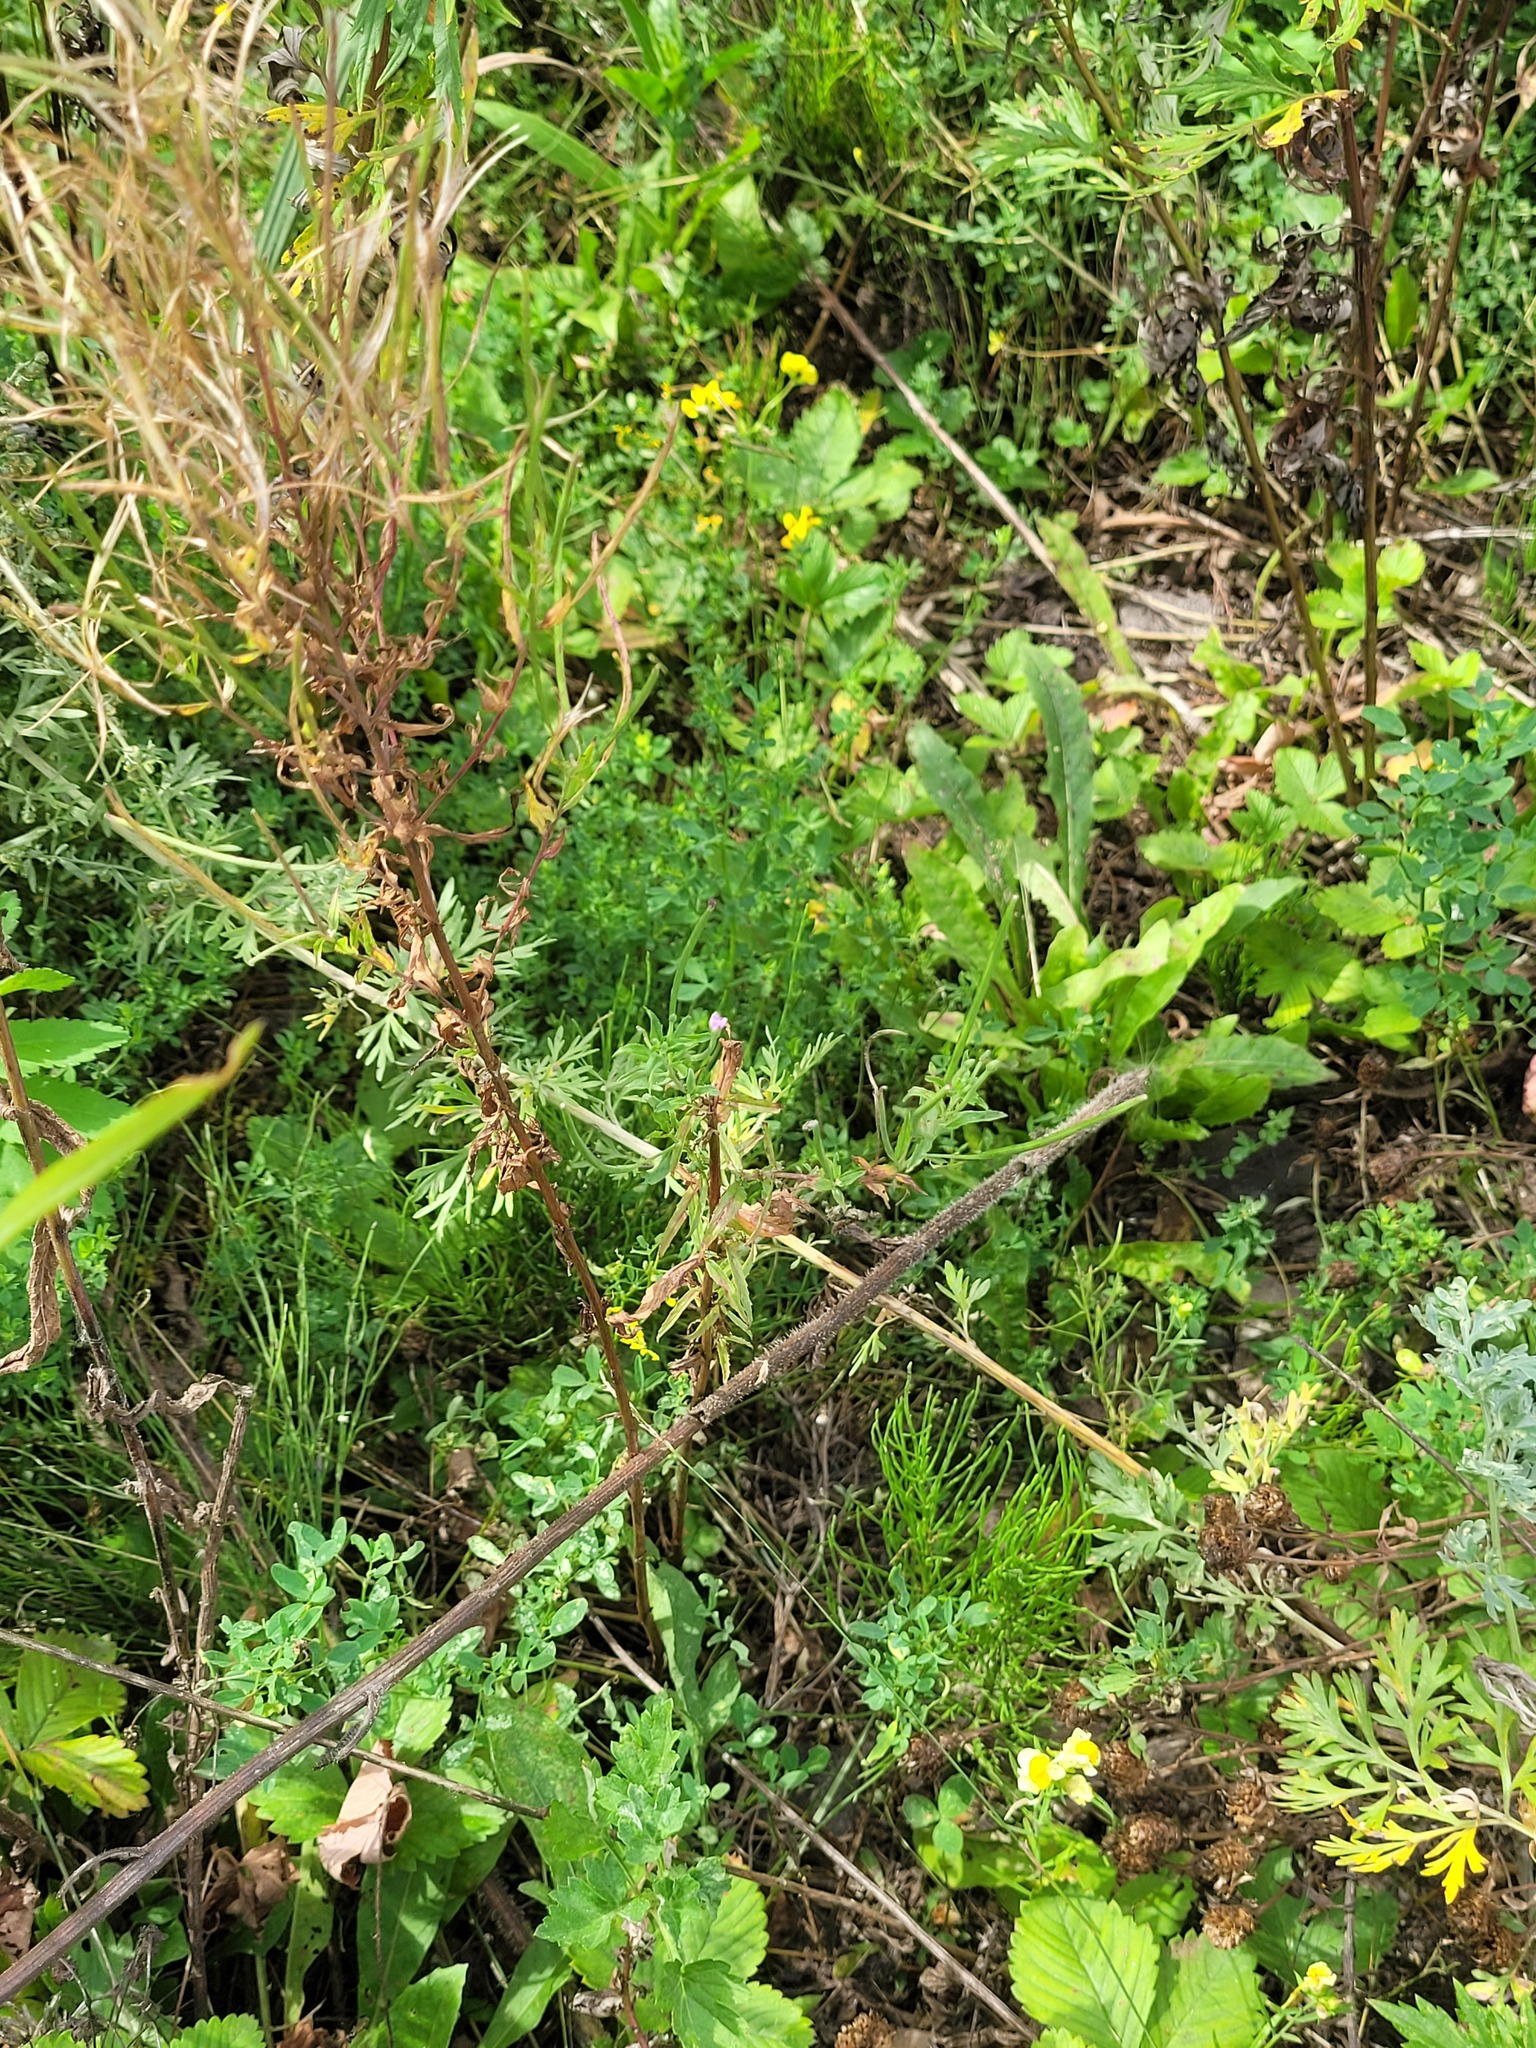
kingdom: Plantae
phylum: Tracheophyta
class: Magnoliopsida
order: Myrtales
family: Onagraceae
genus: Epilobium
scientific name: Epilobium tetragonum
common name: Square-stemmed willowherb
